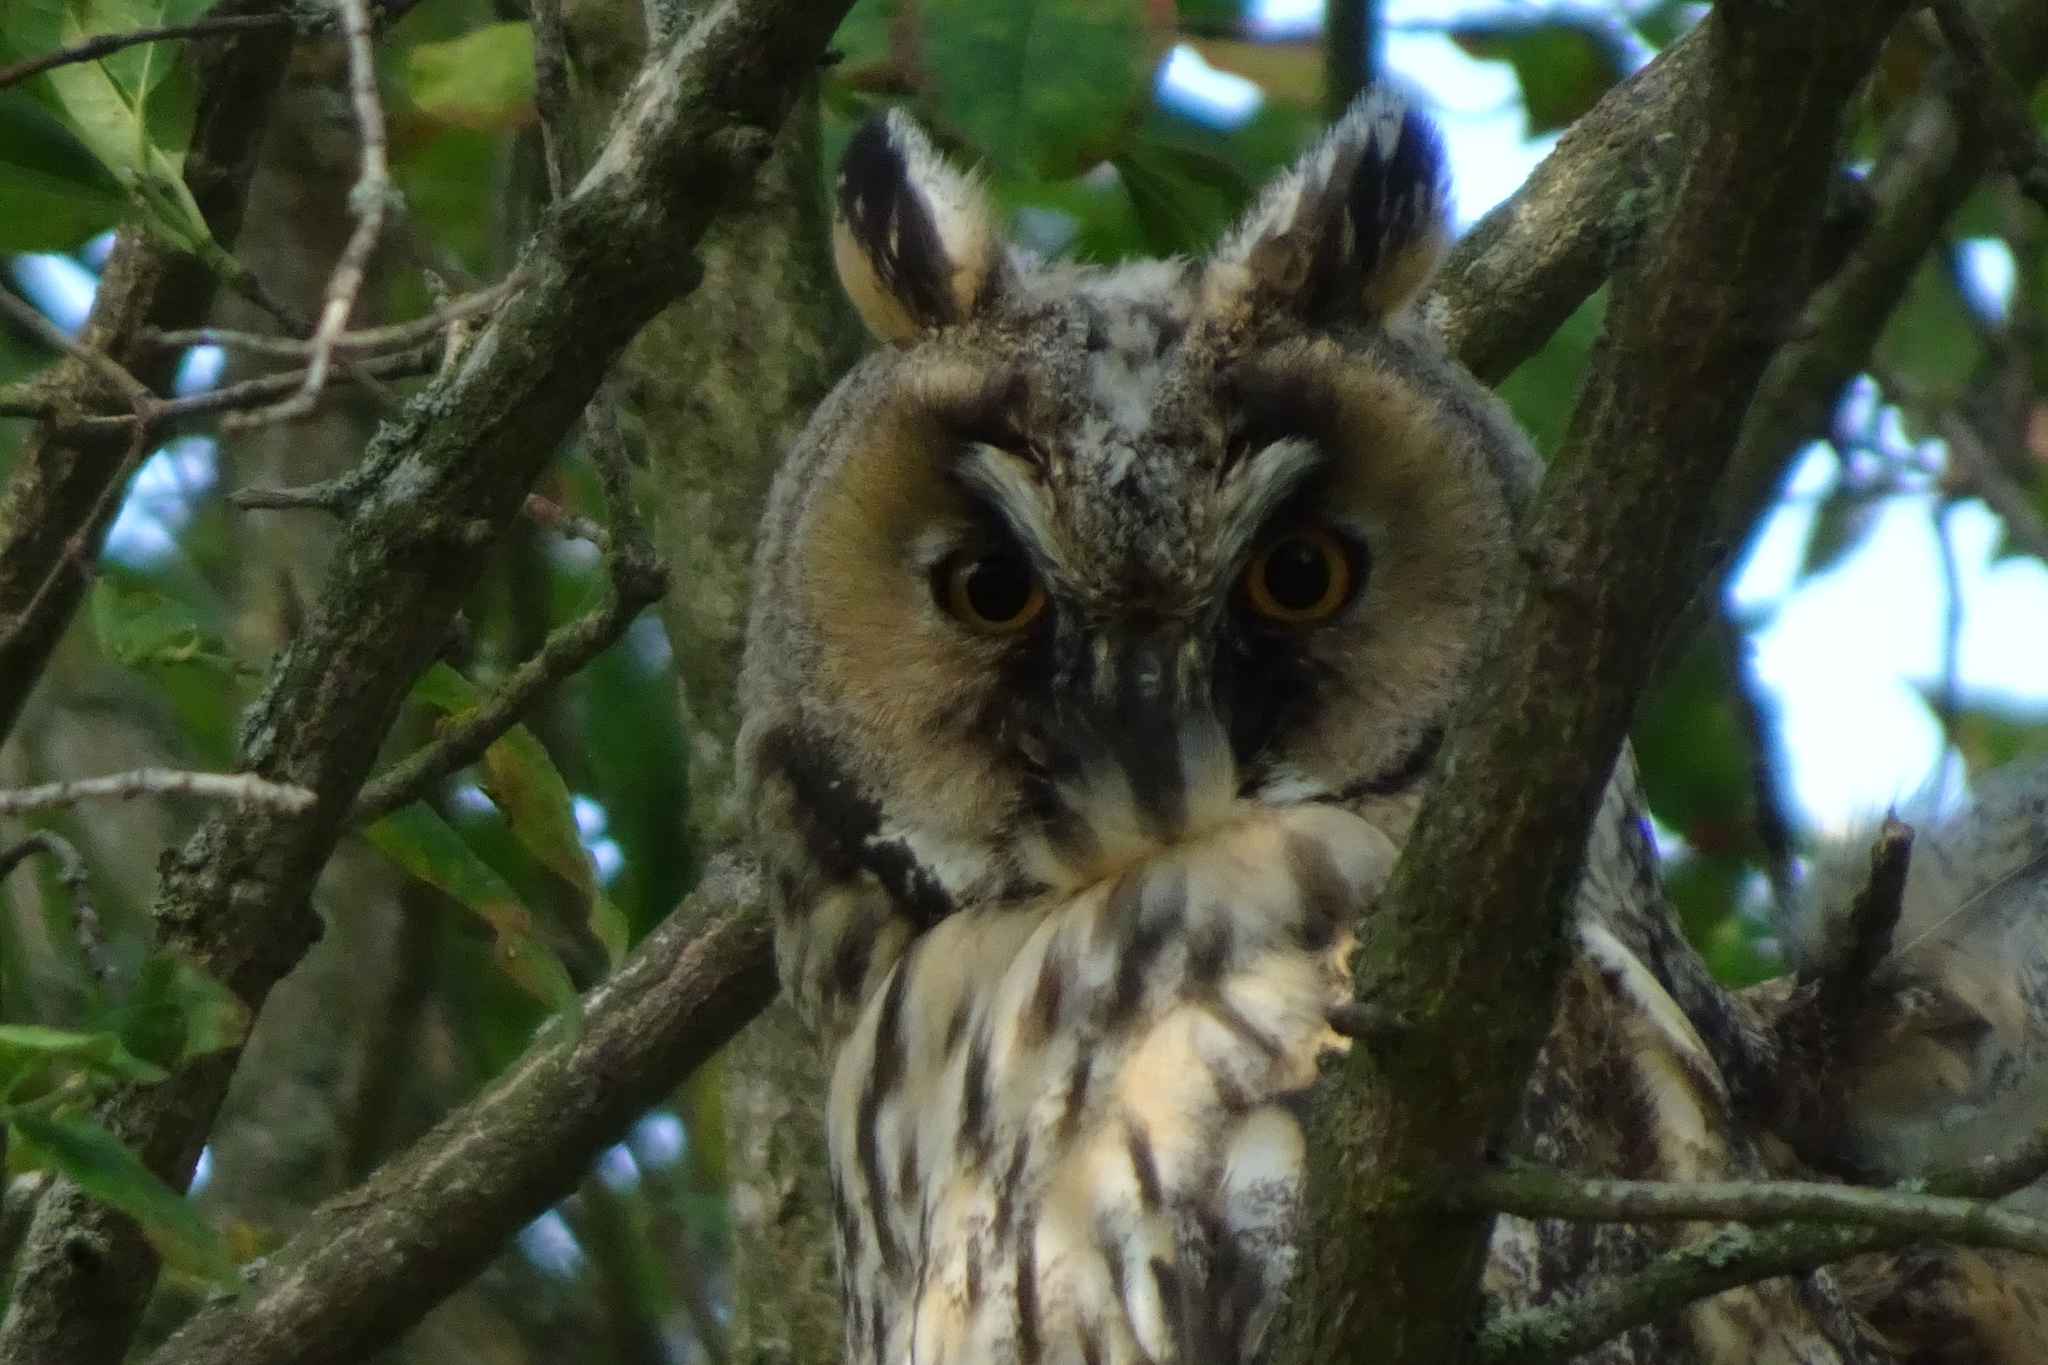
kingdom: Animalia
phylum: Chordata
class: Aves
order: Strigiformes
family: Strigidae
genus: Asio
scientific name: Asio otus
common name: Long-eared owl
